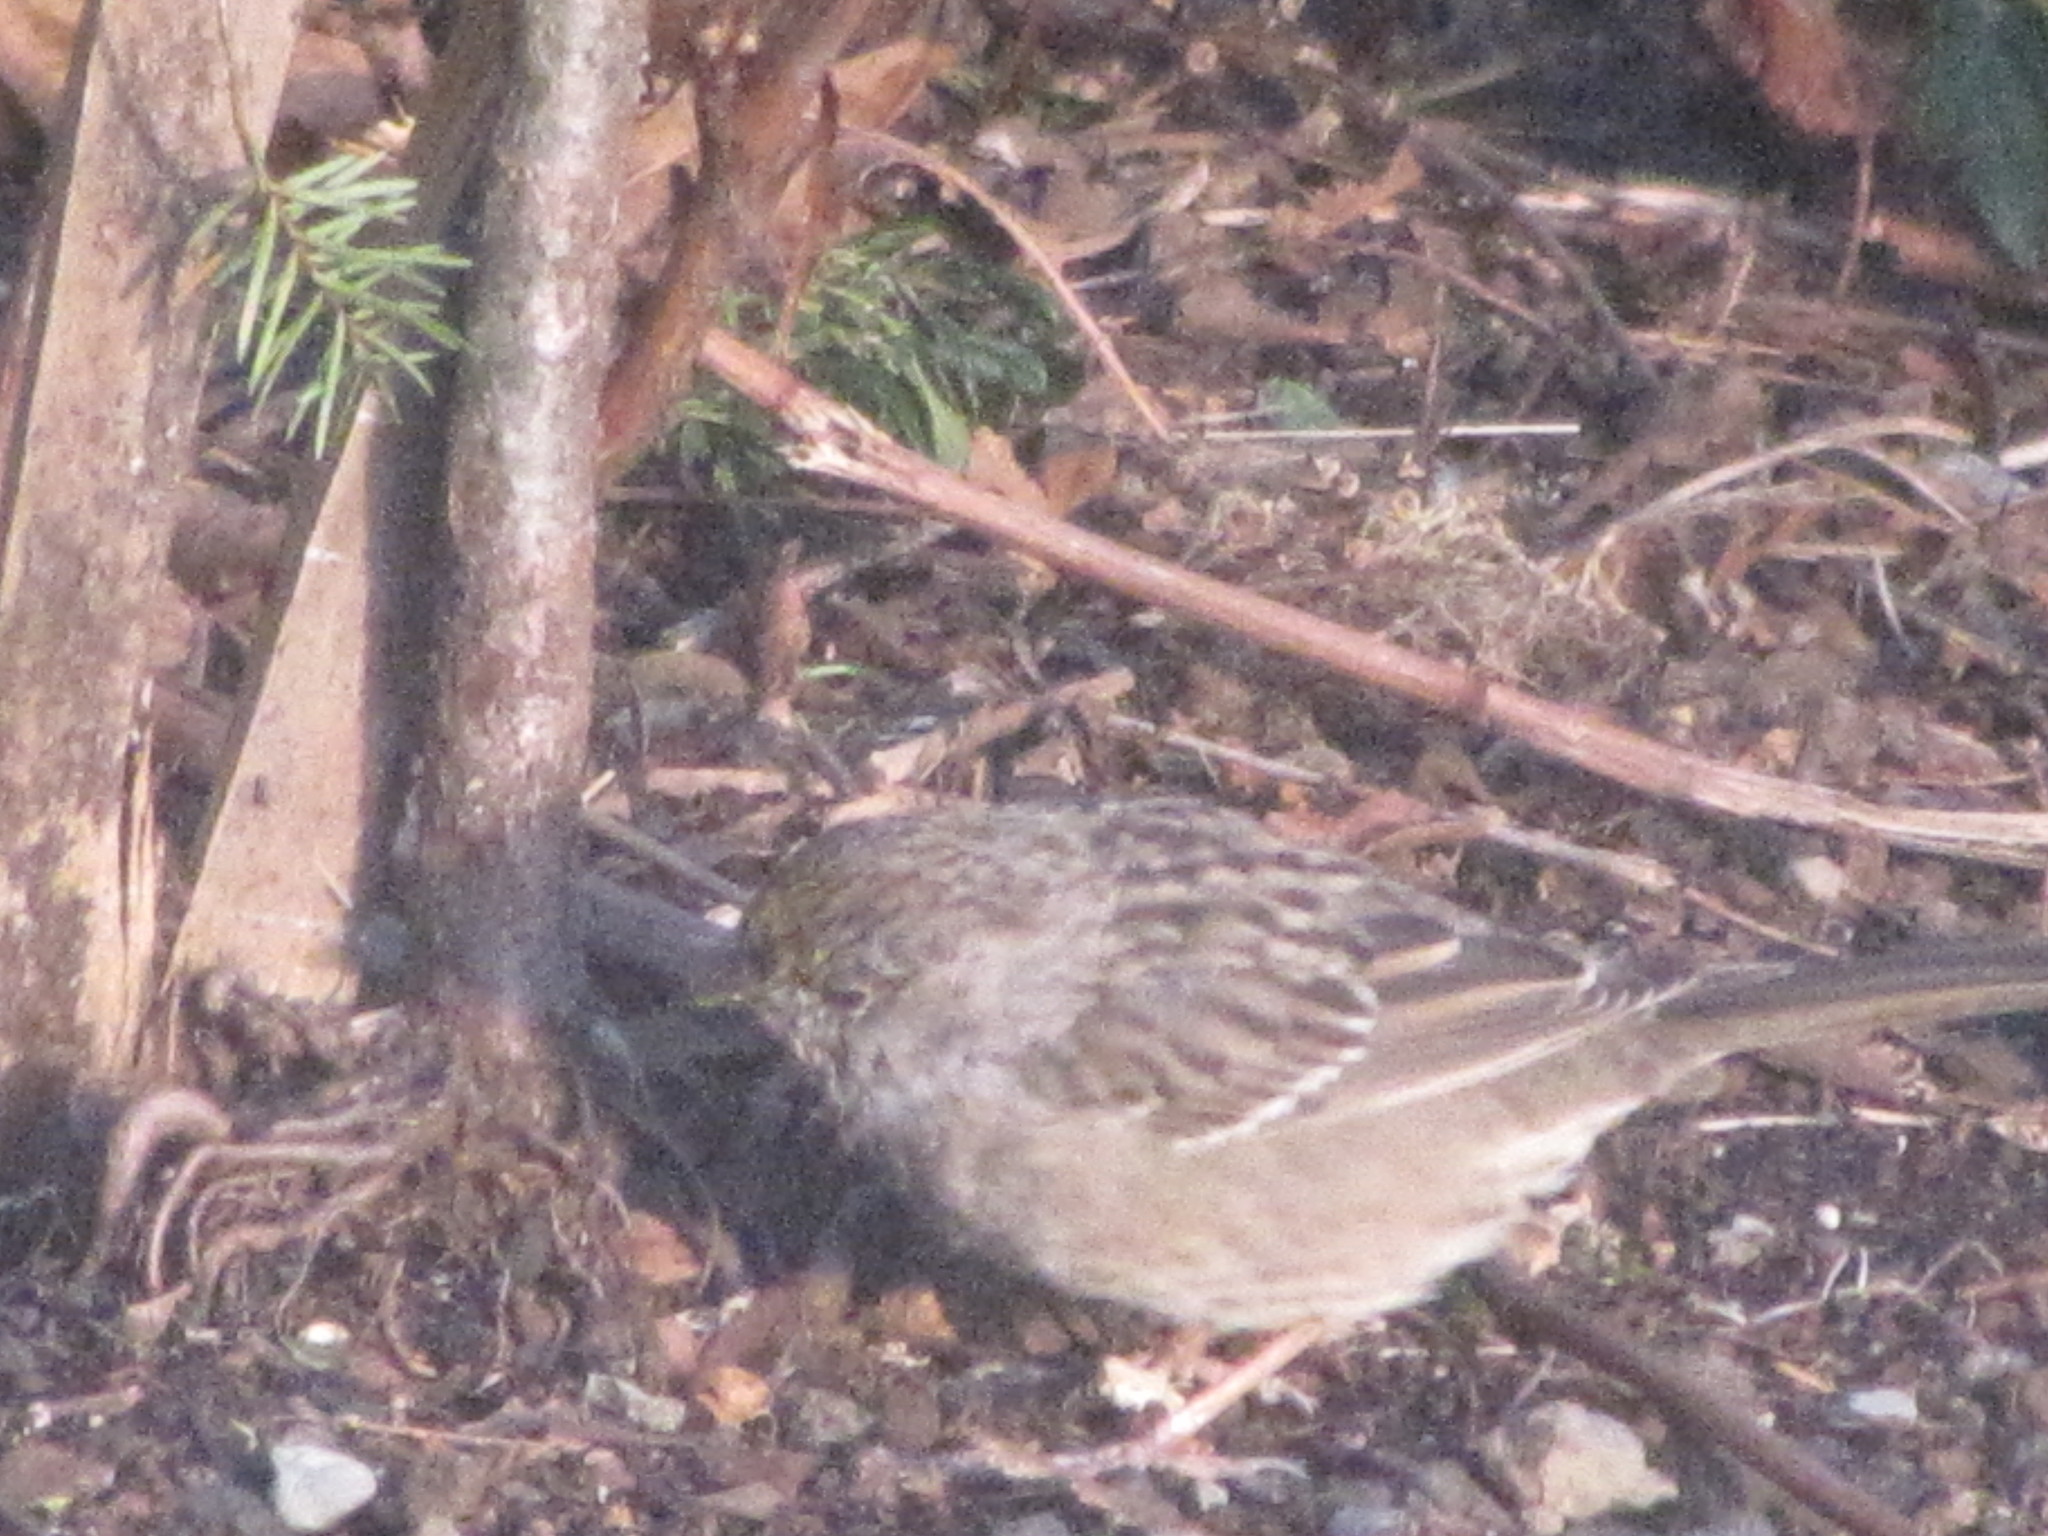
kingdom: Animalia
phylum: Chordata
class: Aves
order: Passeriformes
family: Passerellidae
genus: Zonotrichia
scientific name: Zonotrichia atricapilla
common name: Golden-crowned sparrow
